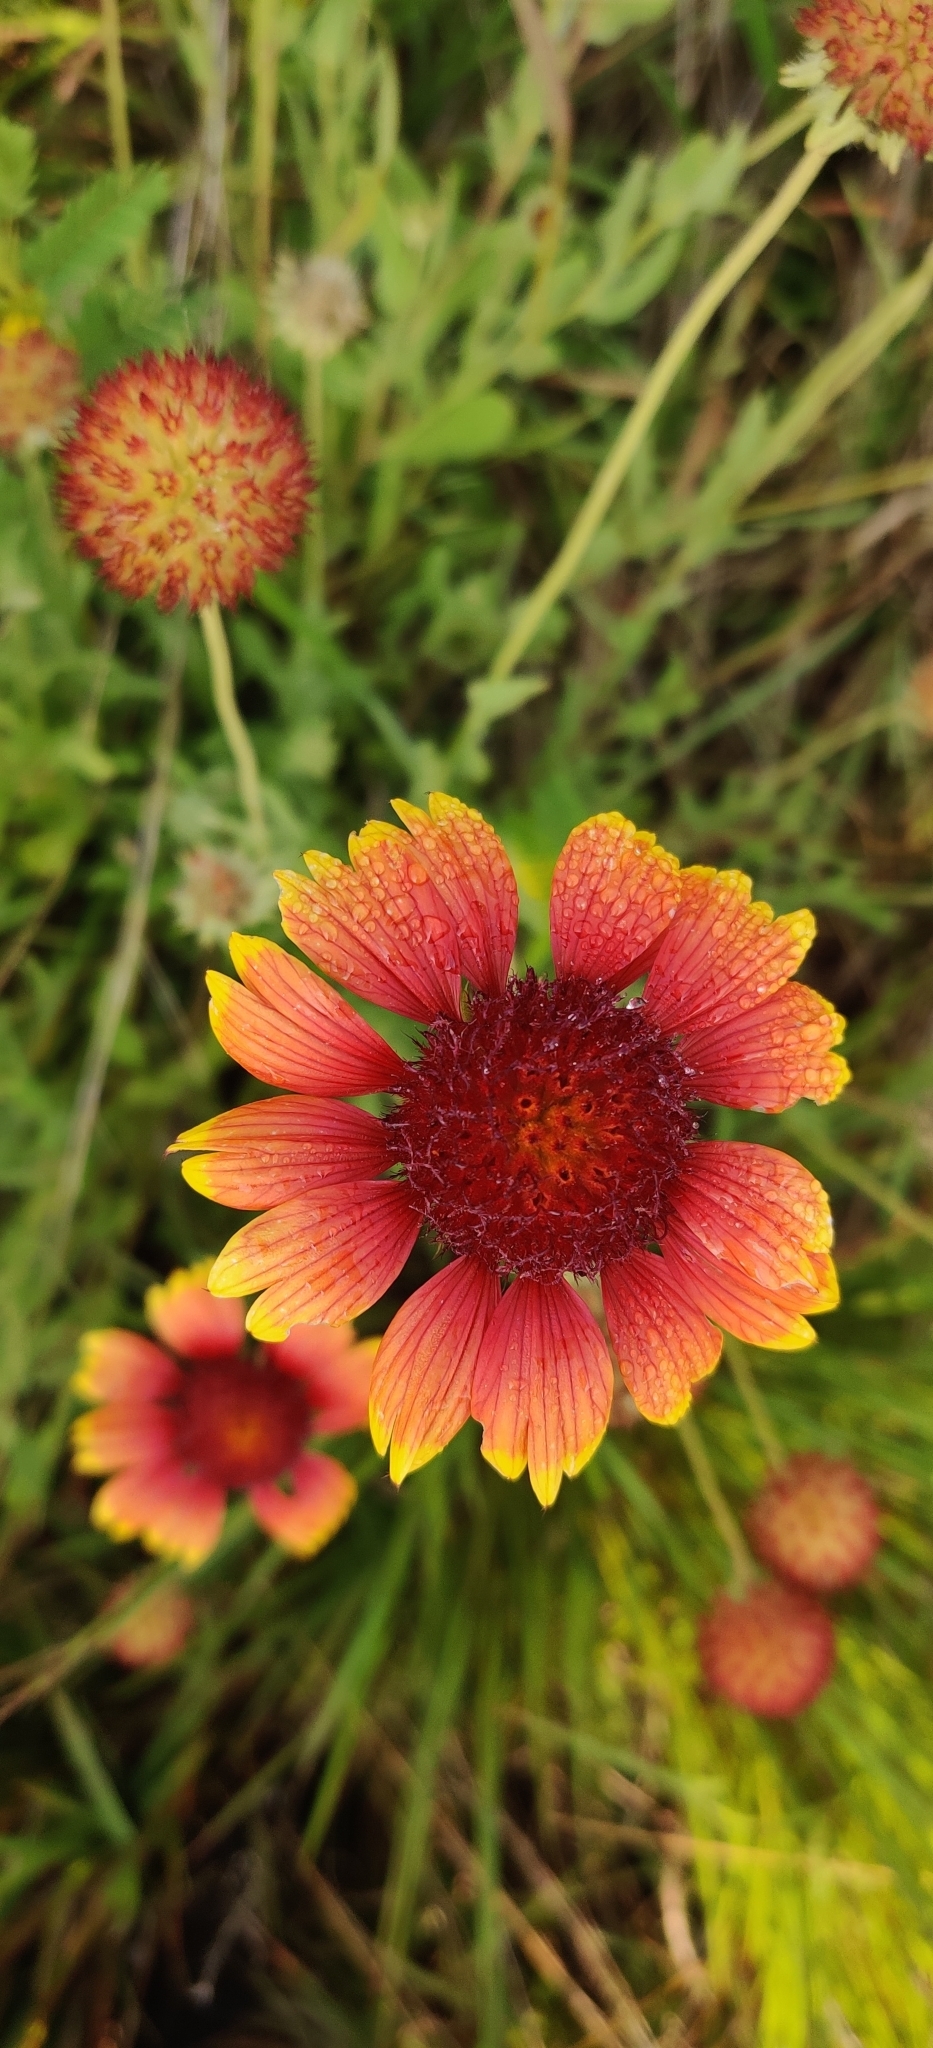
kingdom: Plantae
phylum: Tracheophyta
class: Magnoliopsida
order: Asterales
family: Asteraceae
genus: Gaillardia
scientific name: Gaillardia pulchella
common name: Firewheel
